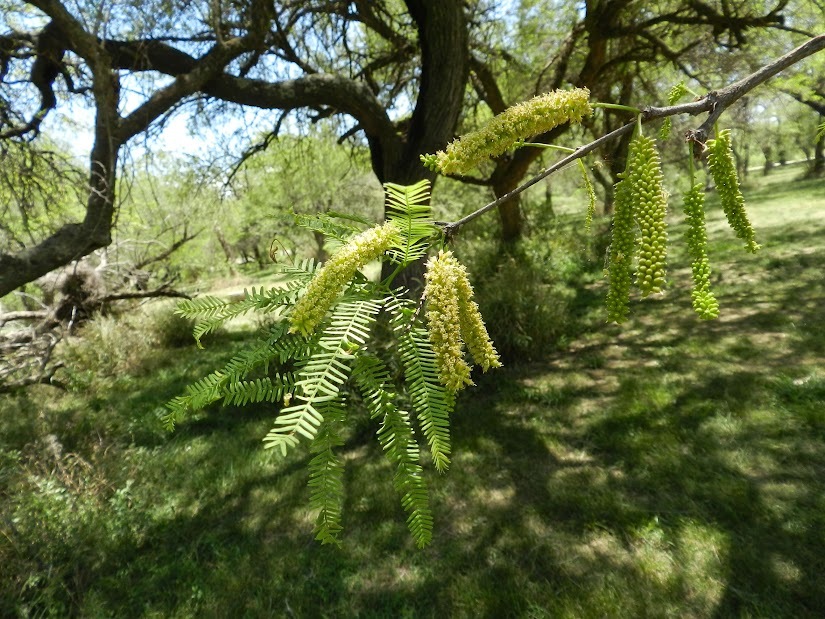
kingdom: Plantae
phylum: Tracheophyta
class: Magnoliopsida
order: Fabales
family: Fabaceae
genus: Prosopis
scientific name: Prosopis alba
